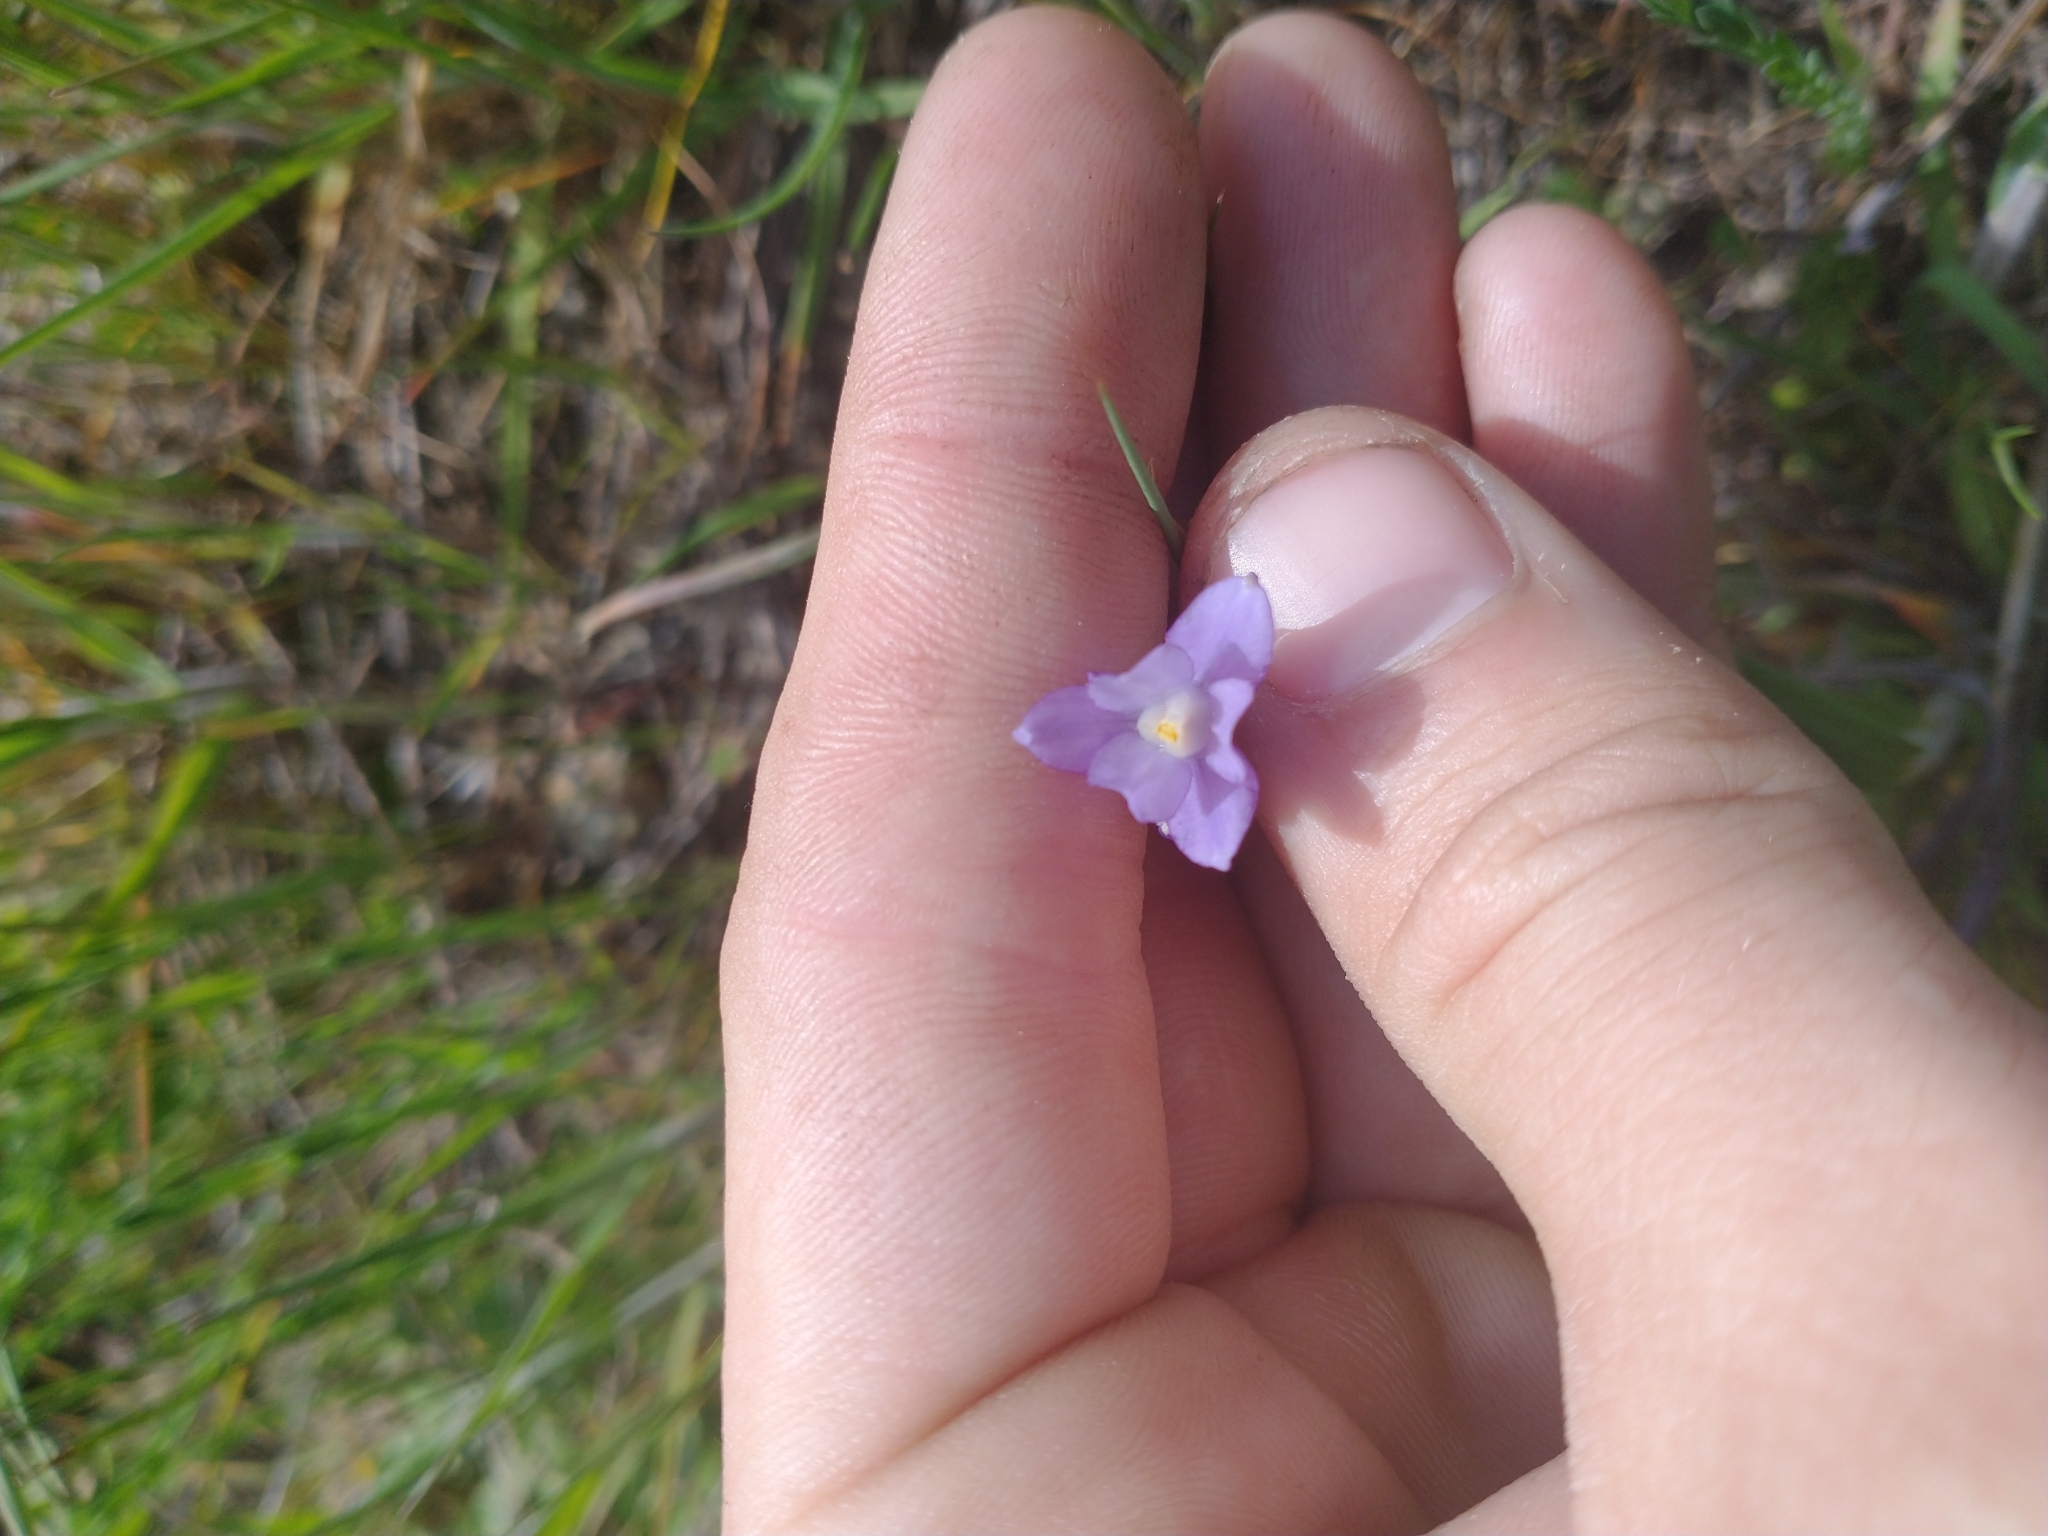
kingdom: Plantae
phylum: Tracheophyta
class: Liliopsida
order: Asparagales
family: Asparagaceae
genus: Dipterostemon
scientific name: Dipterostemon capitatus
